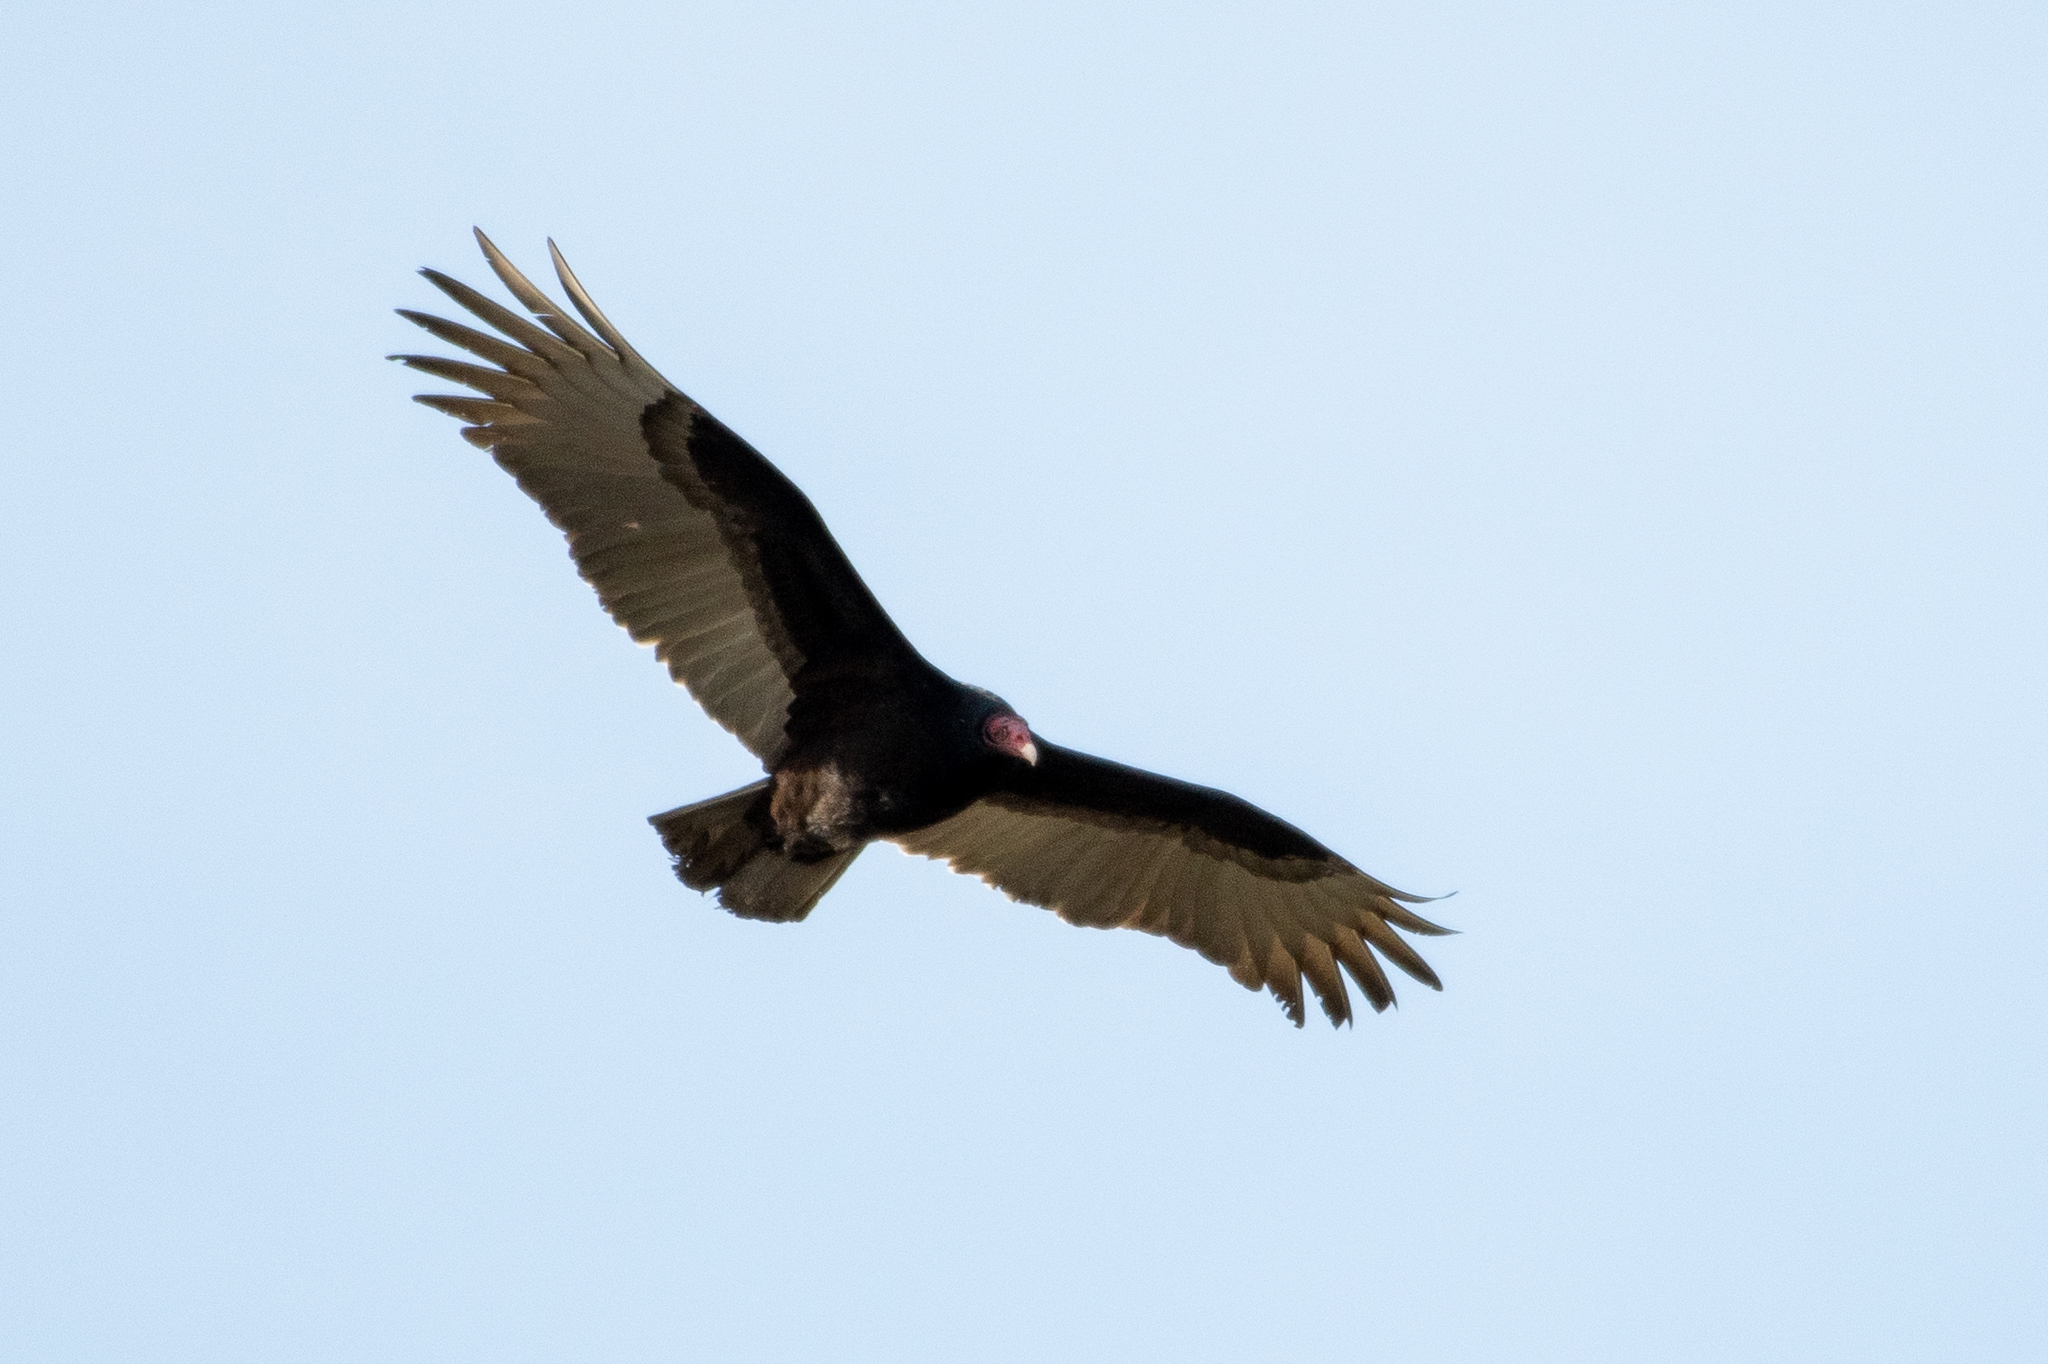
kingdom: Animalia
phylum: Chordata
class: Aves
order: Accipitriformes
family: Cathartidae
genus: Cathartes
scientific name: Cathartes aura
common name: Turkey vulture
